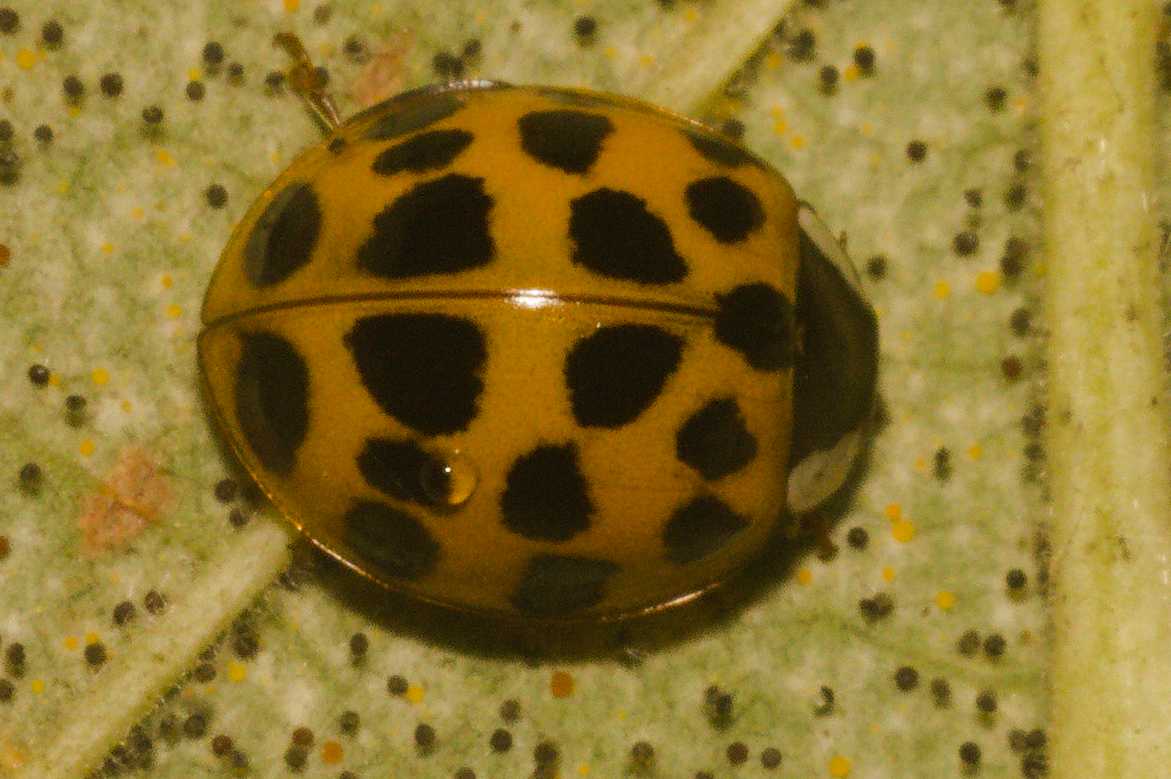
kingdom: Animalia
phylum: Arthropoda
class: Insecta
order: Coleoptera
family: Coccinellidae
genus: Harmonia
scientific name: Harmonia axyridis
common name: Harlequin ladybird
